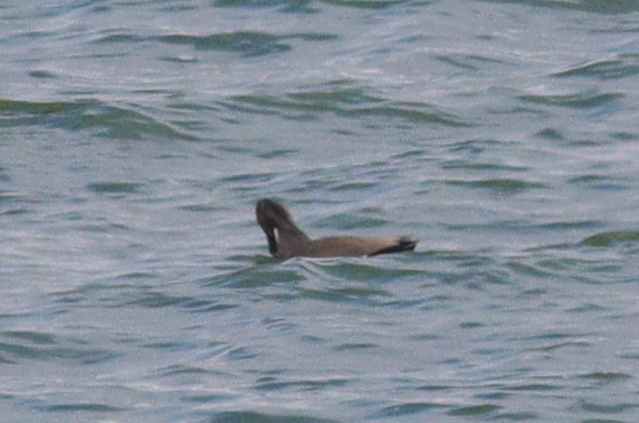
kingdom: Animalia
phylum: Chordata
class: Aves
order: Anseriformes
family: Anatidae
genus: Mareca
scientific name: Mareca strepera
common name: Gadwall
